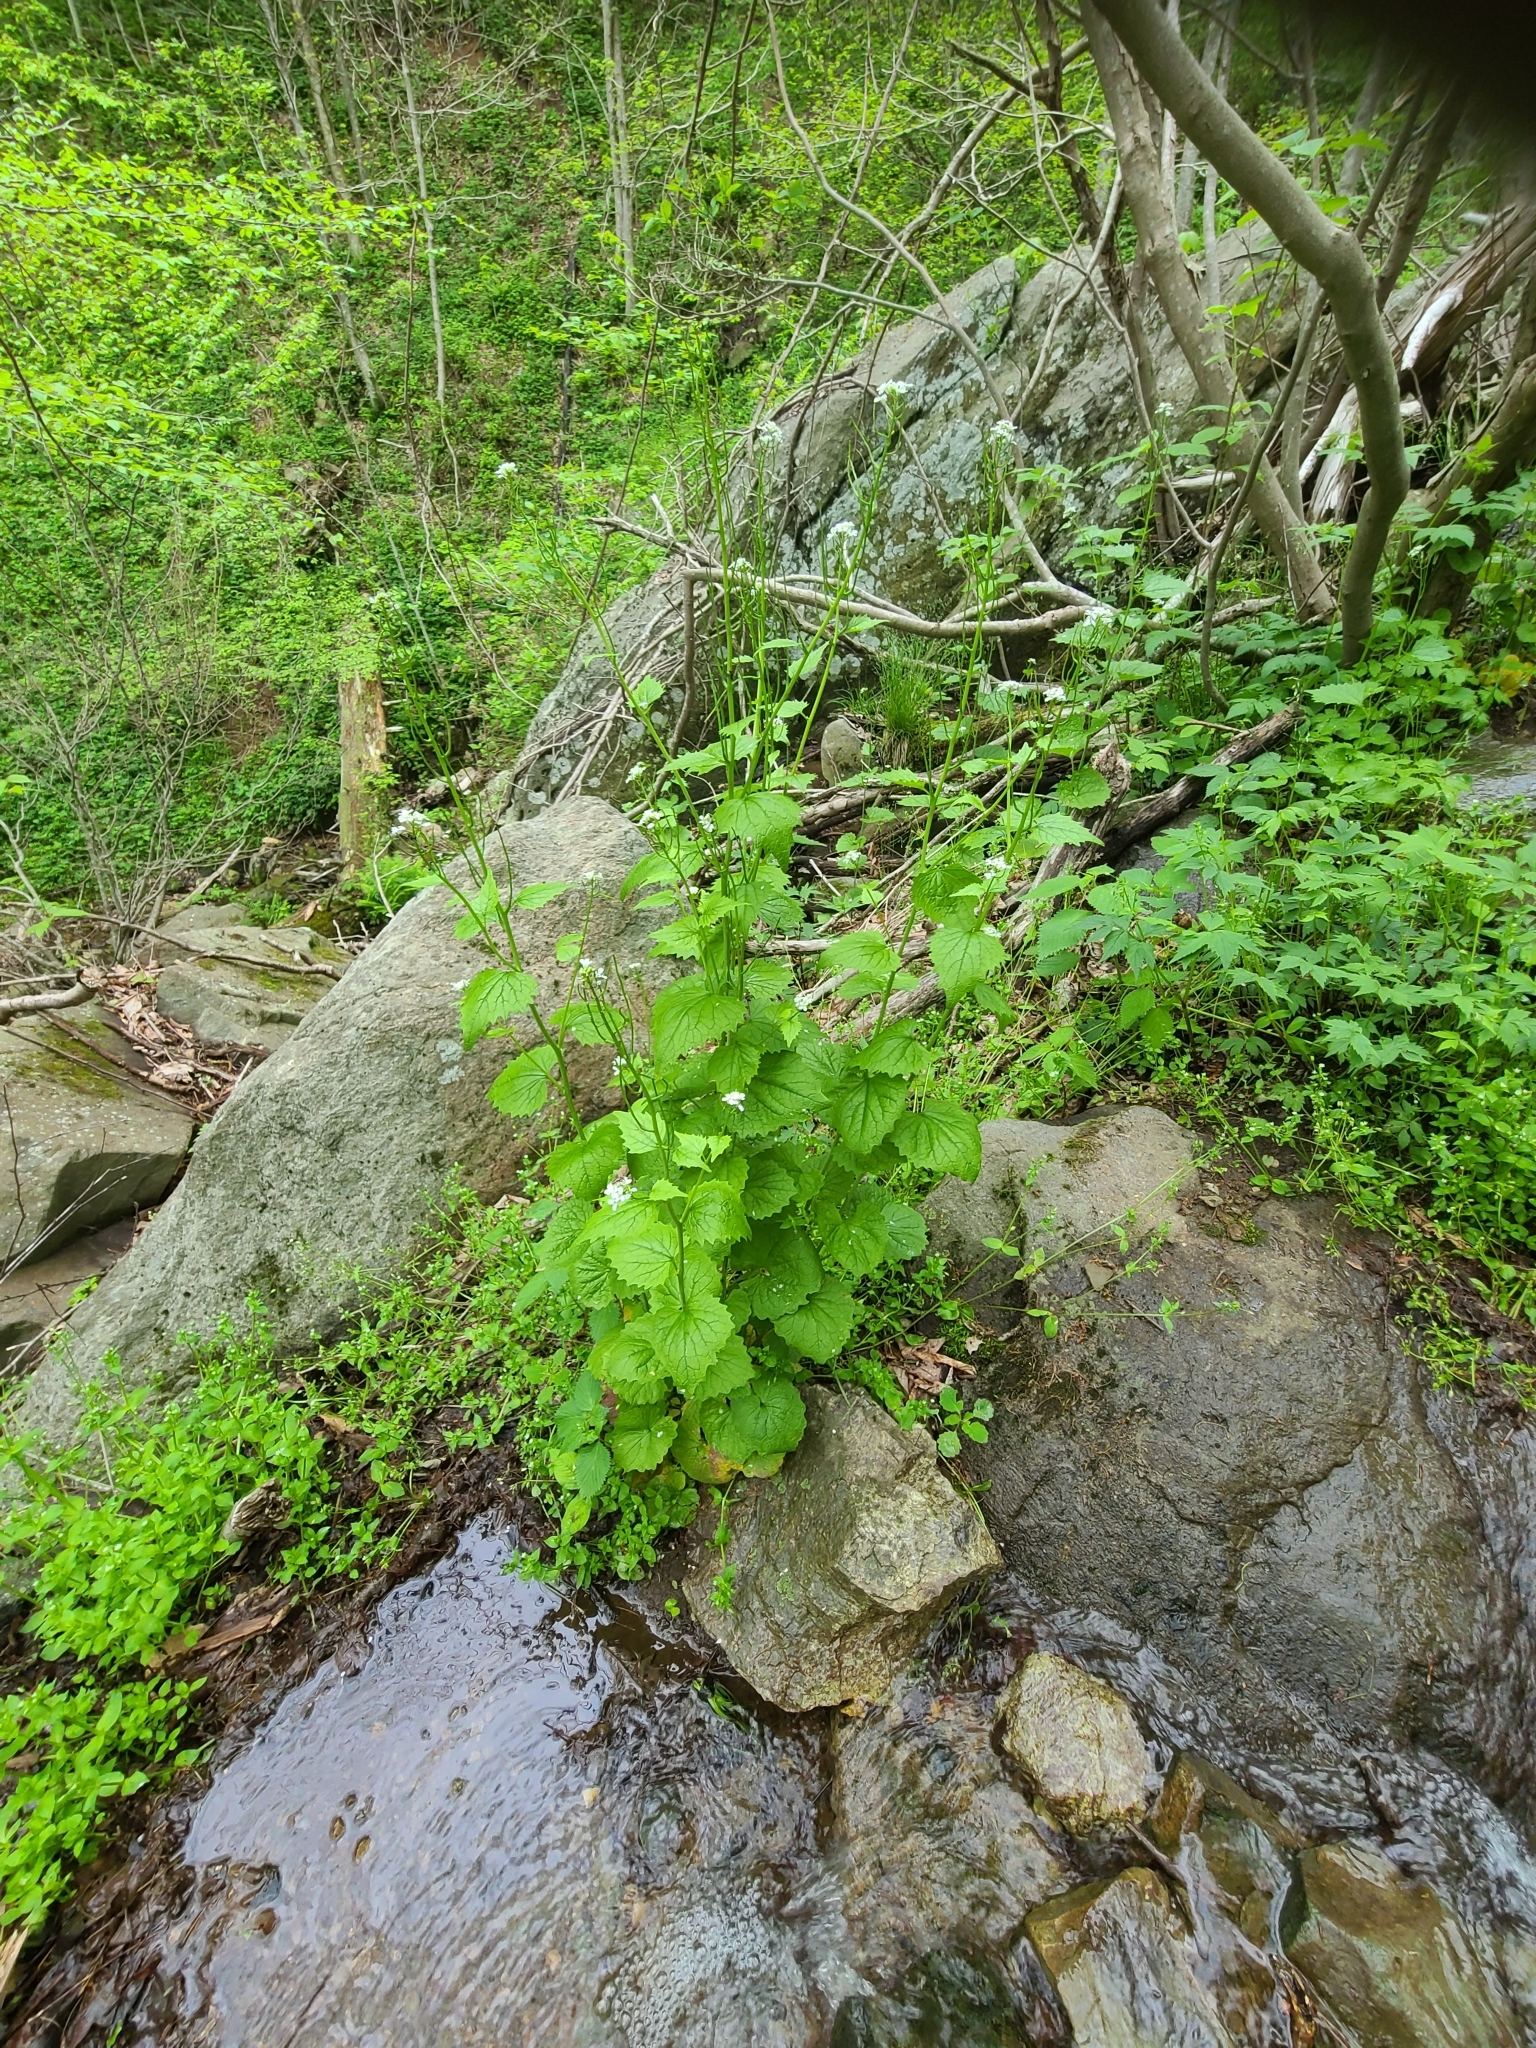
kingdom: Plantae
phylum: Tracheophyta
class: Magnoliopsida
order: Brassicales
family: Brassicaceae
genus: Alliaria
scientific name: Alliaria petiolata
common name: Garlic mustard
